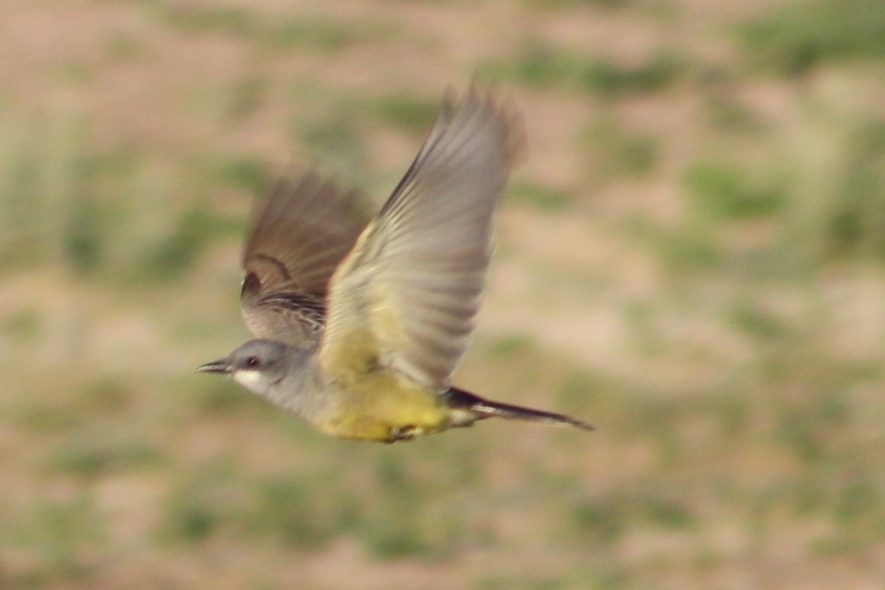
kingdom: Animalia
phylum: Chordata
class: Aves
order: Passeriformes
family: Tyrannidae
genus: Tyrannus
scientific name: Tyrannus vociferans
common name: Cassin's kingbird
